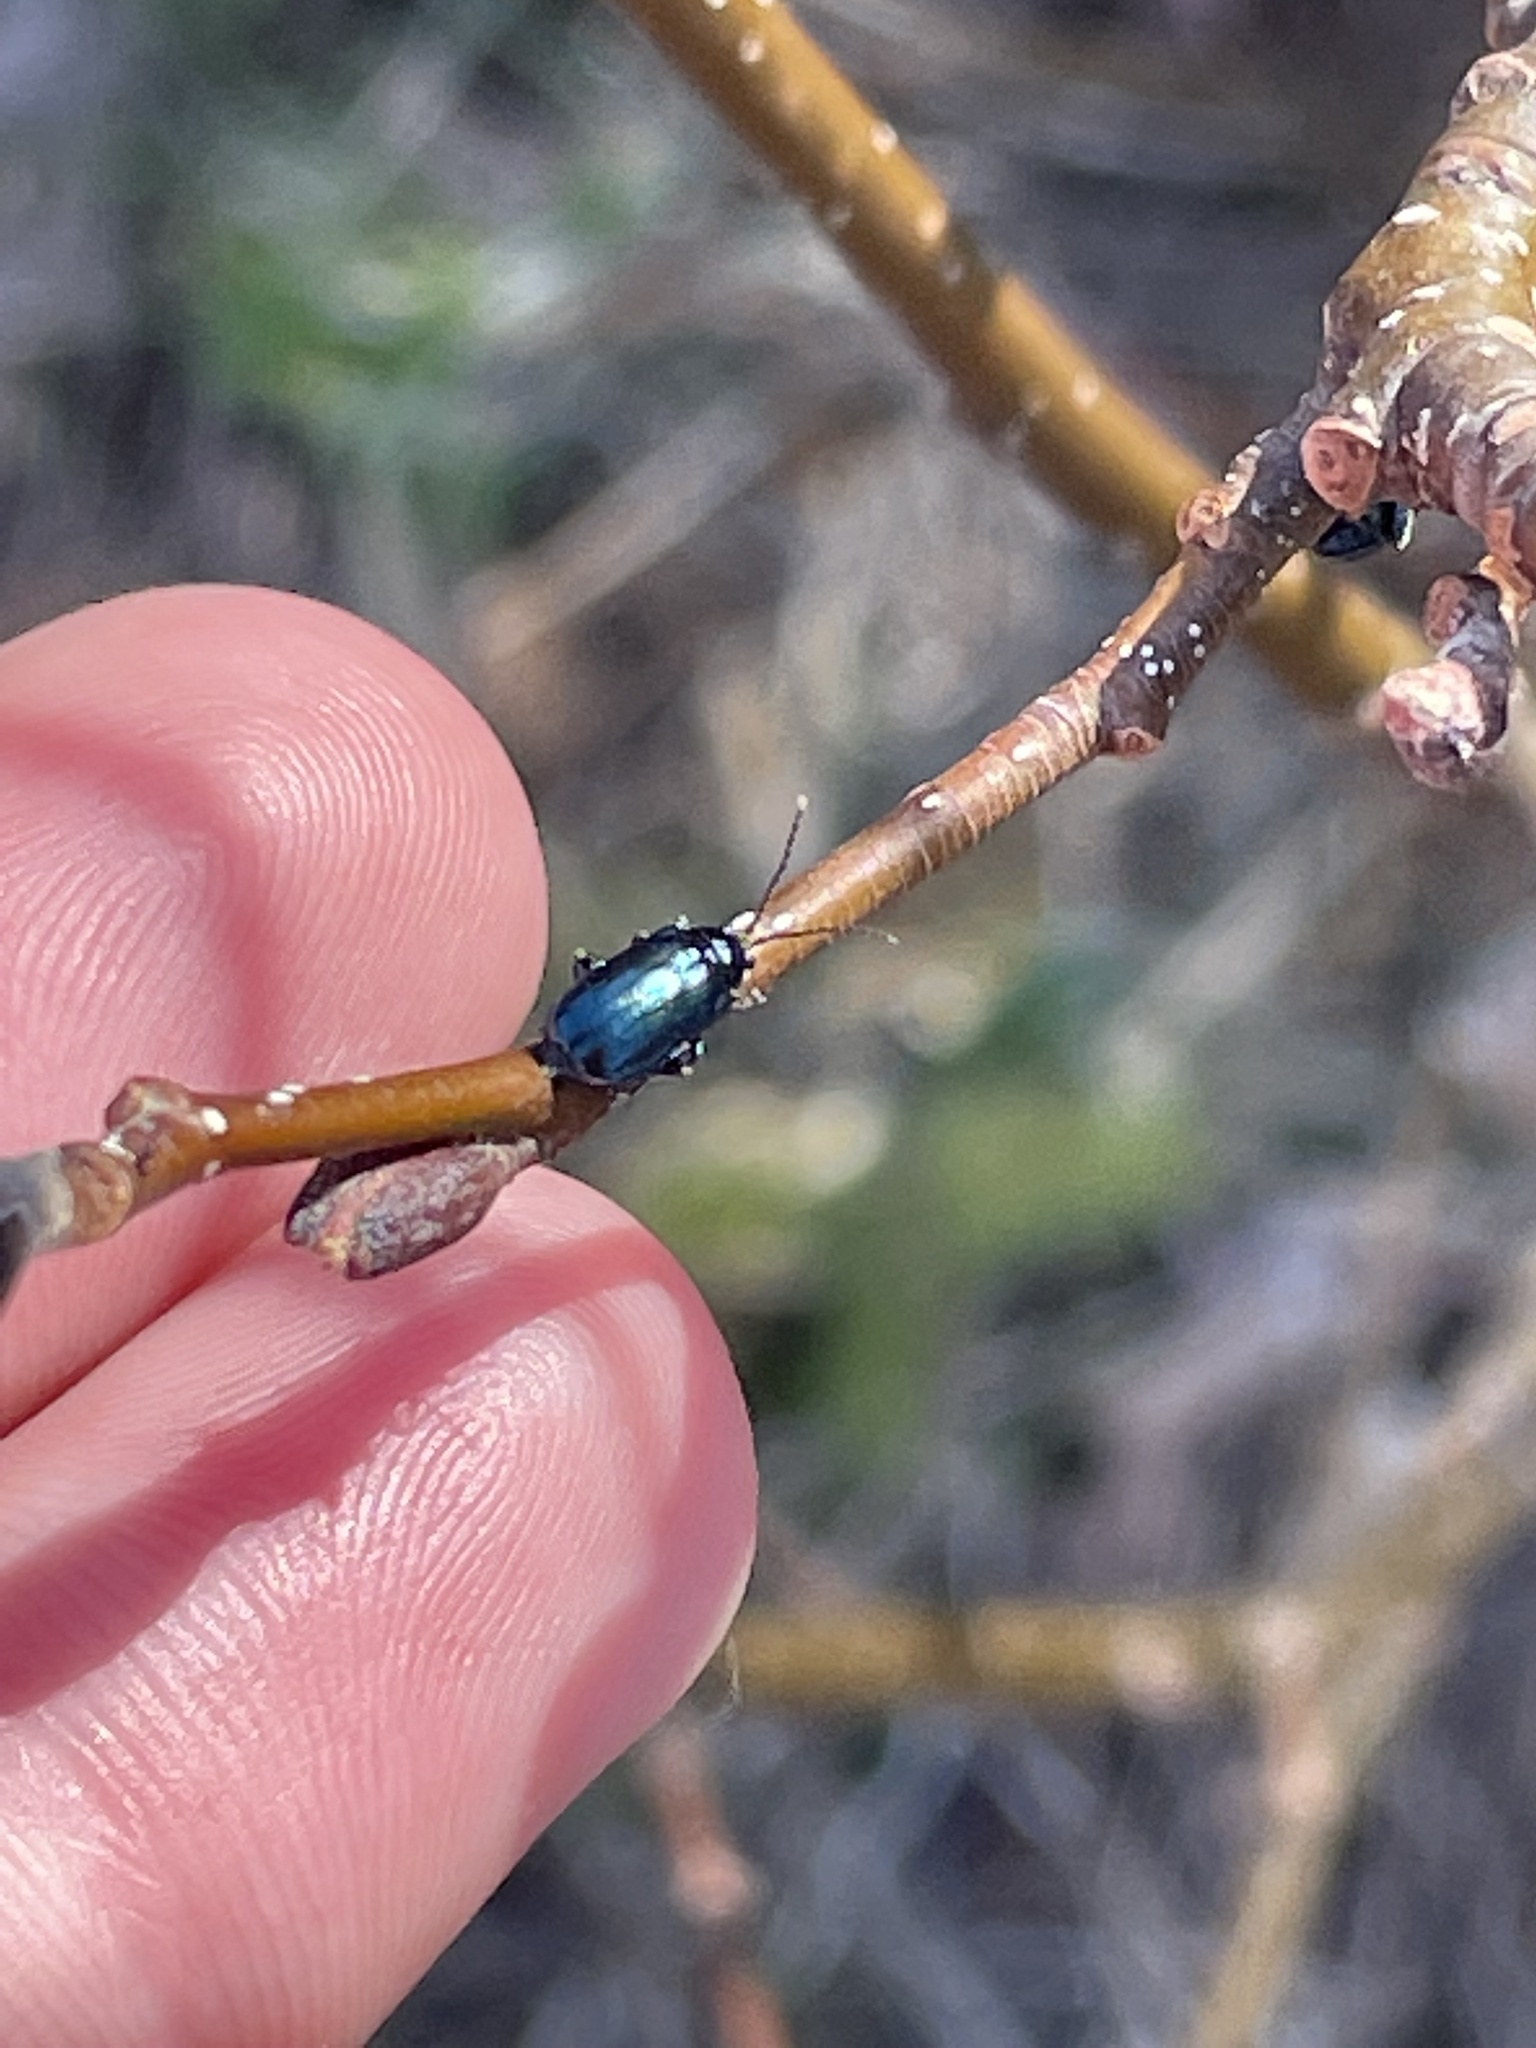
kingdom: Animalia
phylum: Arthropoda
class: Insecta
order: Coleoptera
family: Chrysomelidae
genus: Altica
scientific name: Altica ambiens
